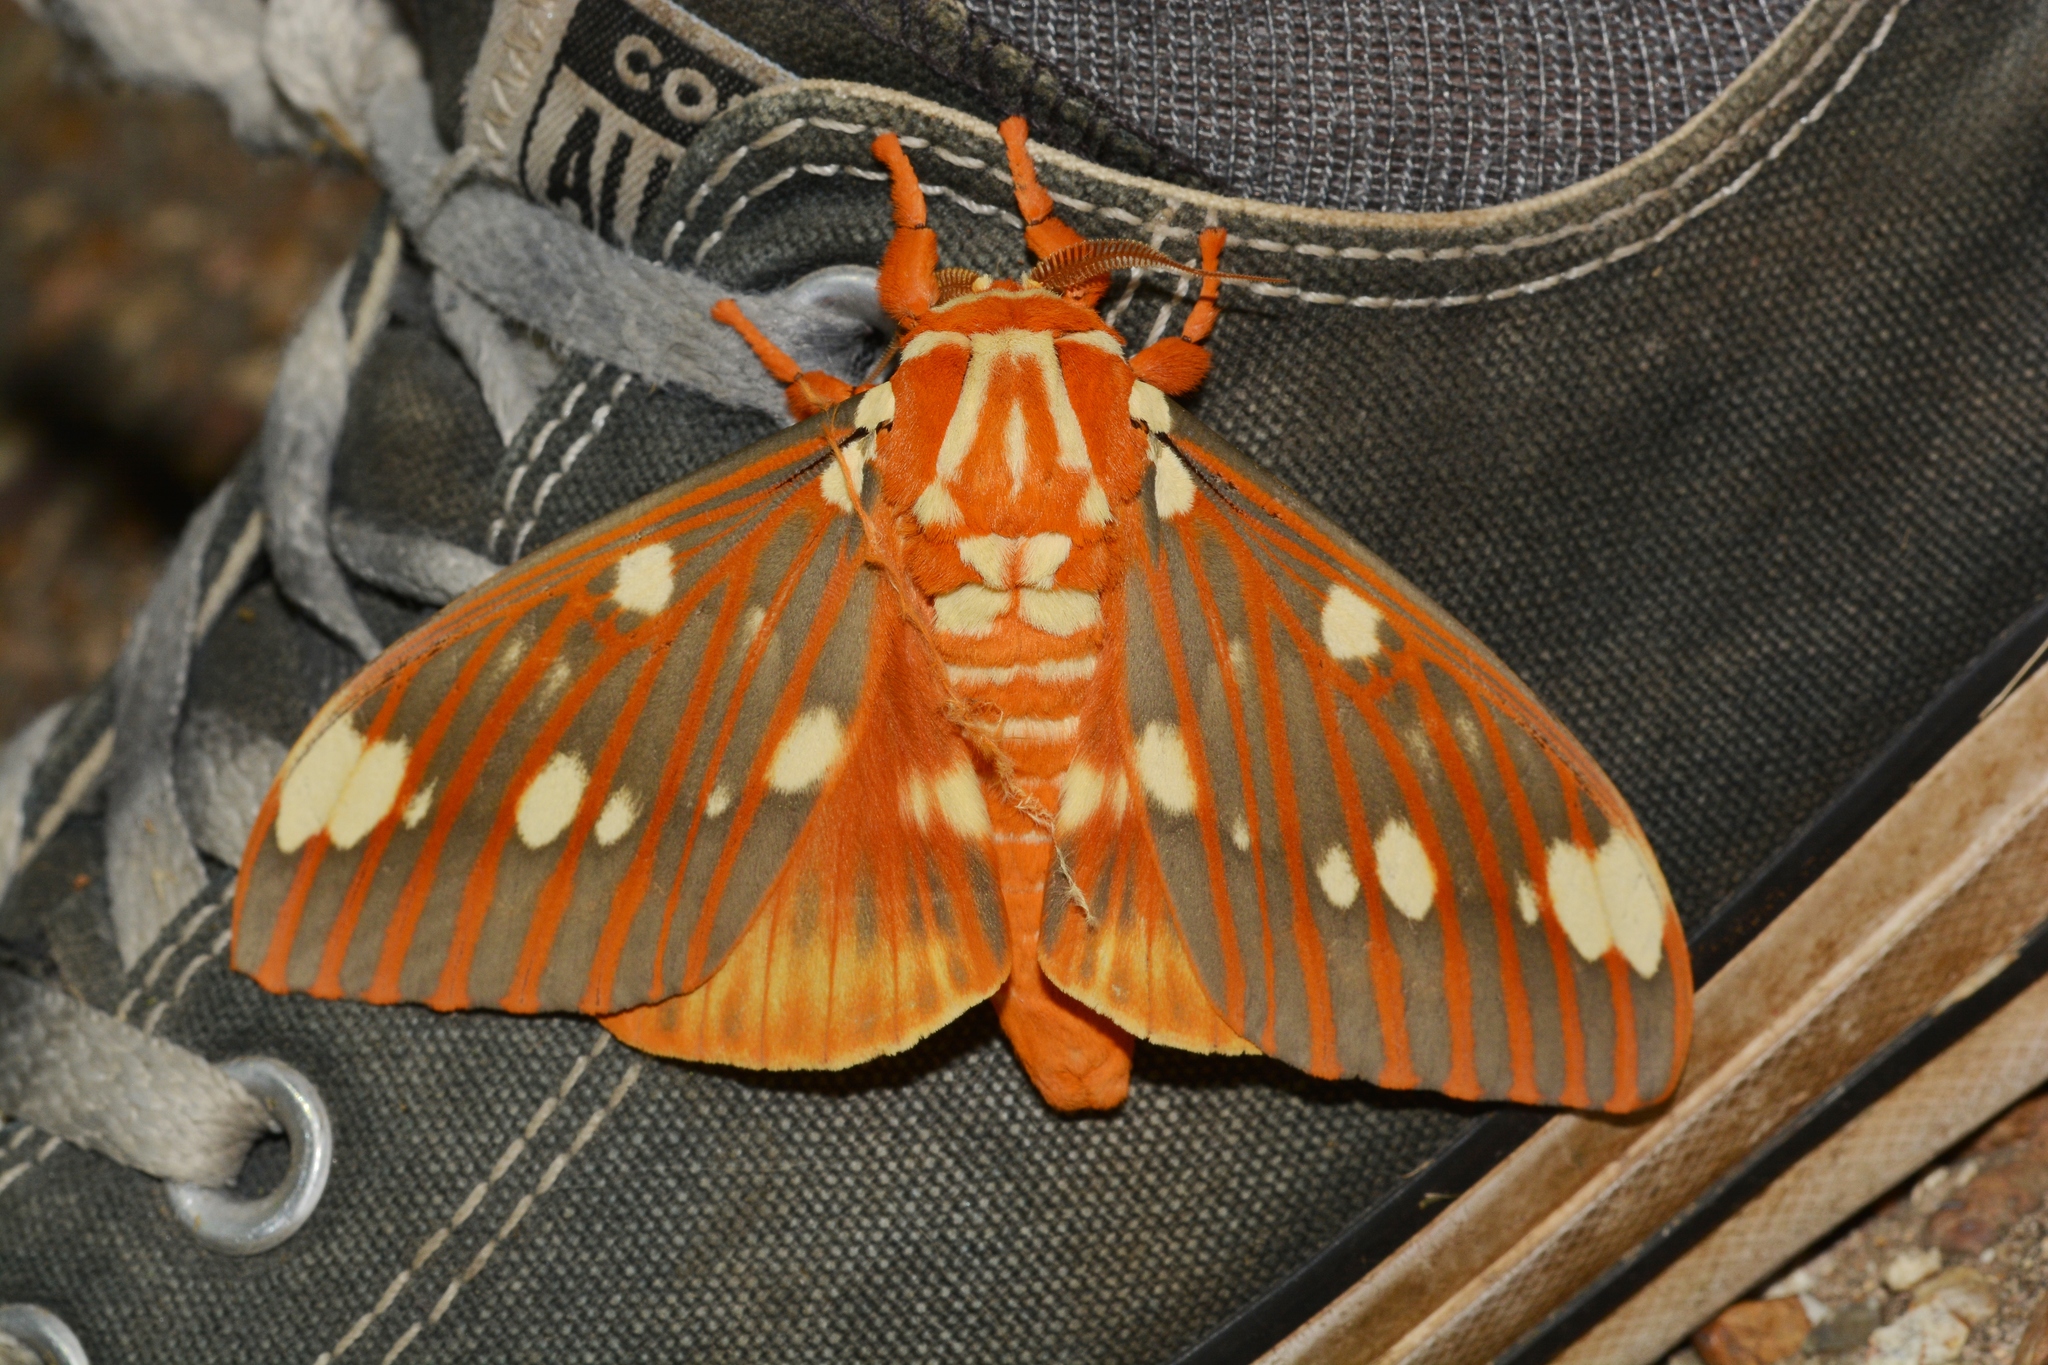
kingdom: Animalia
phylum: Arthropoda
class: Insecta
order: Lepidoptera
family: Saturniidae
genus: Citheronia
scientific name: Citheronia regalis
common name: Hickory horned devil
